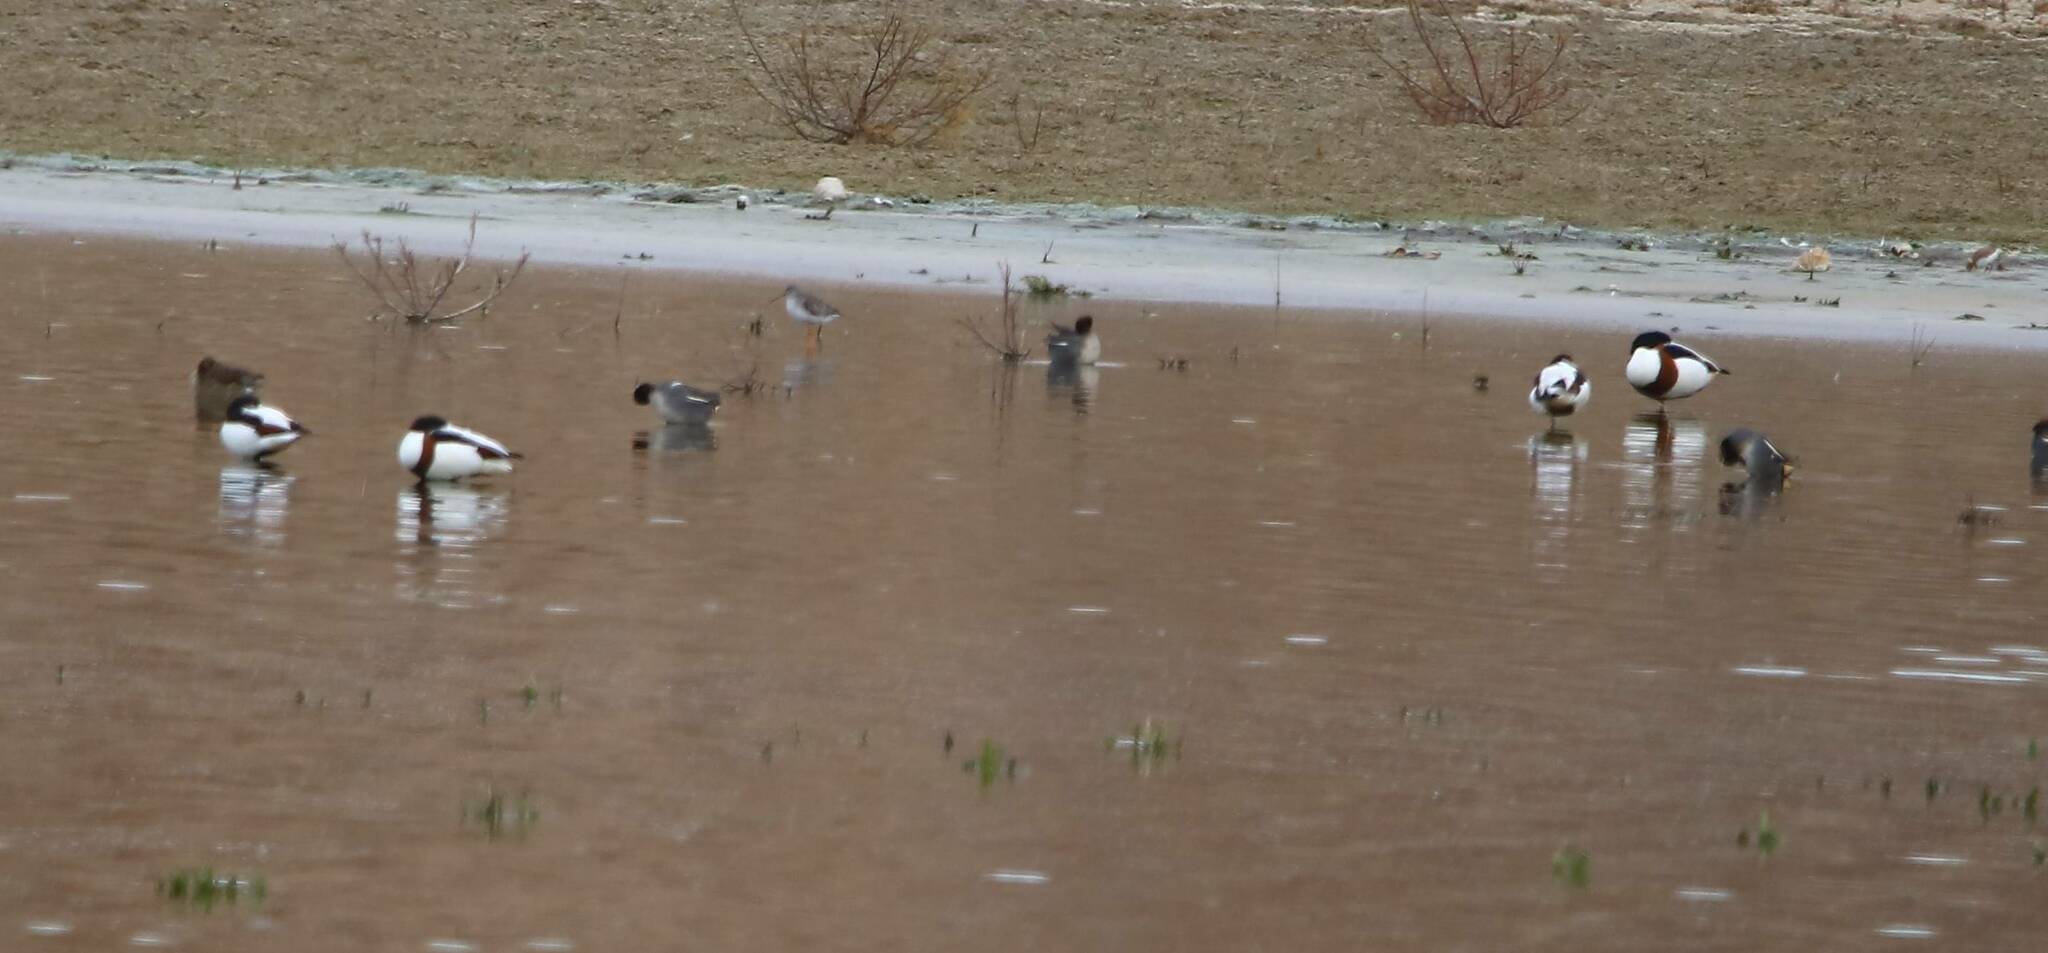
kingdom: Animalia
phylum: Chordata
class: Aves
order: Anseriformes
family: Anatidae
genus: Tadorna
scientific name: Tadorna tadorna
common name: Common shelduck
